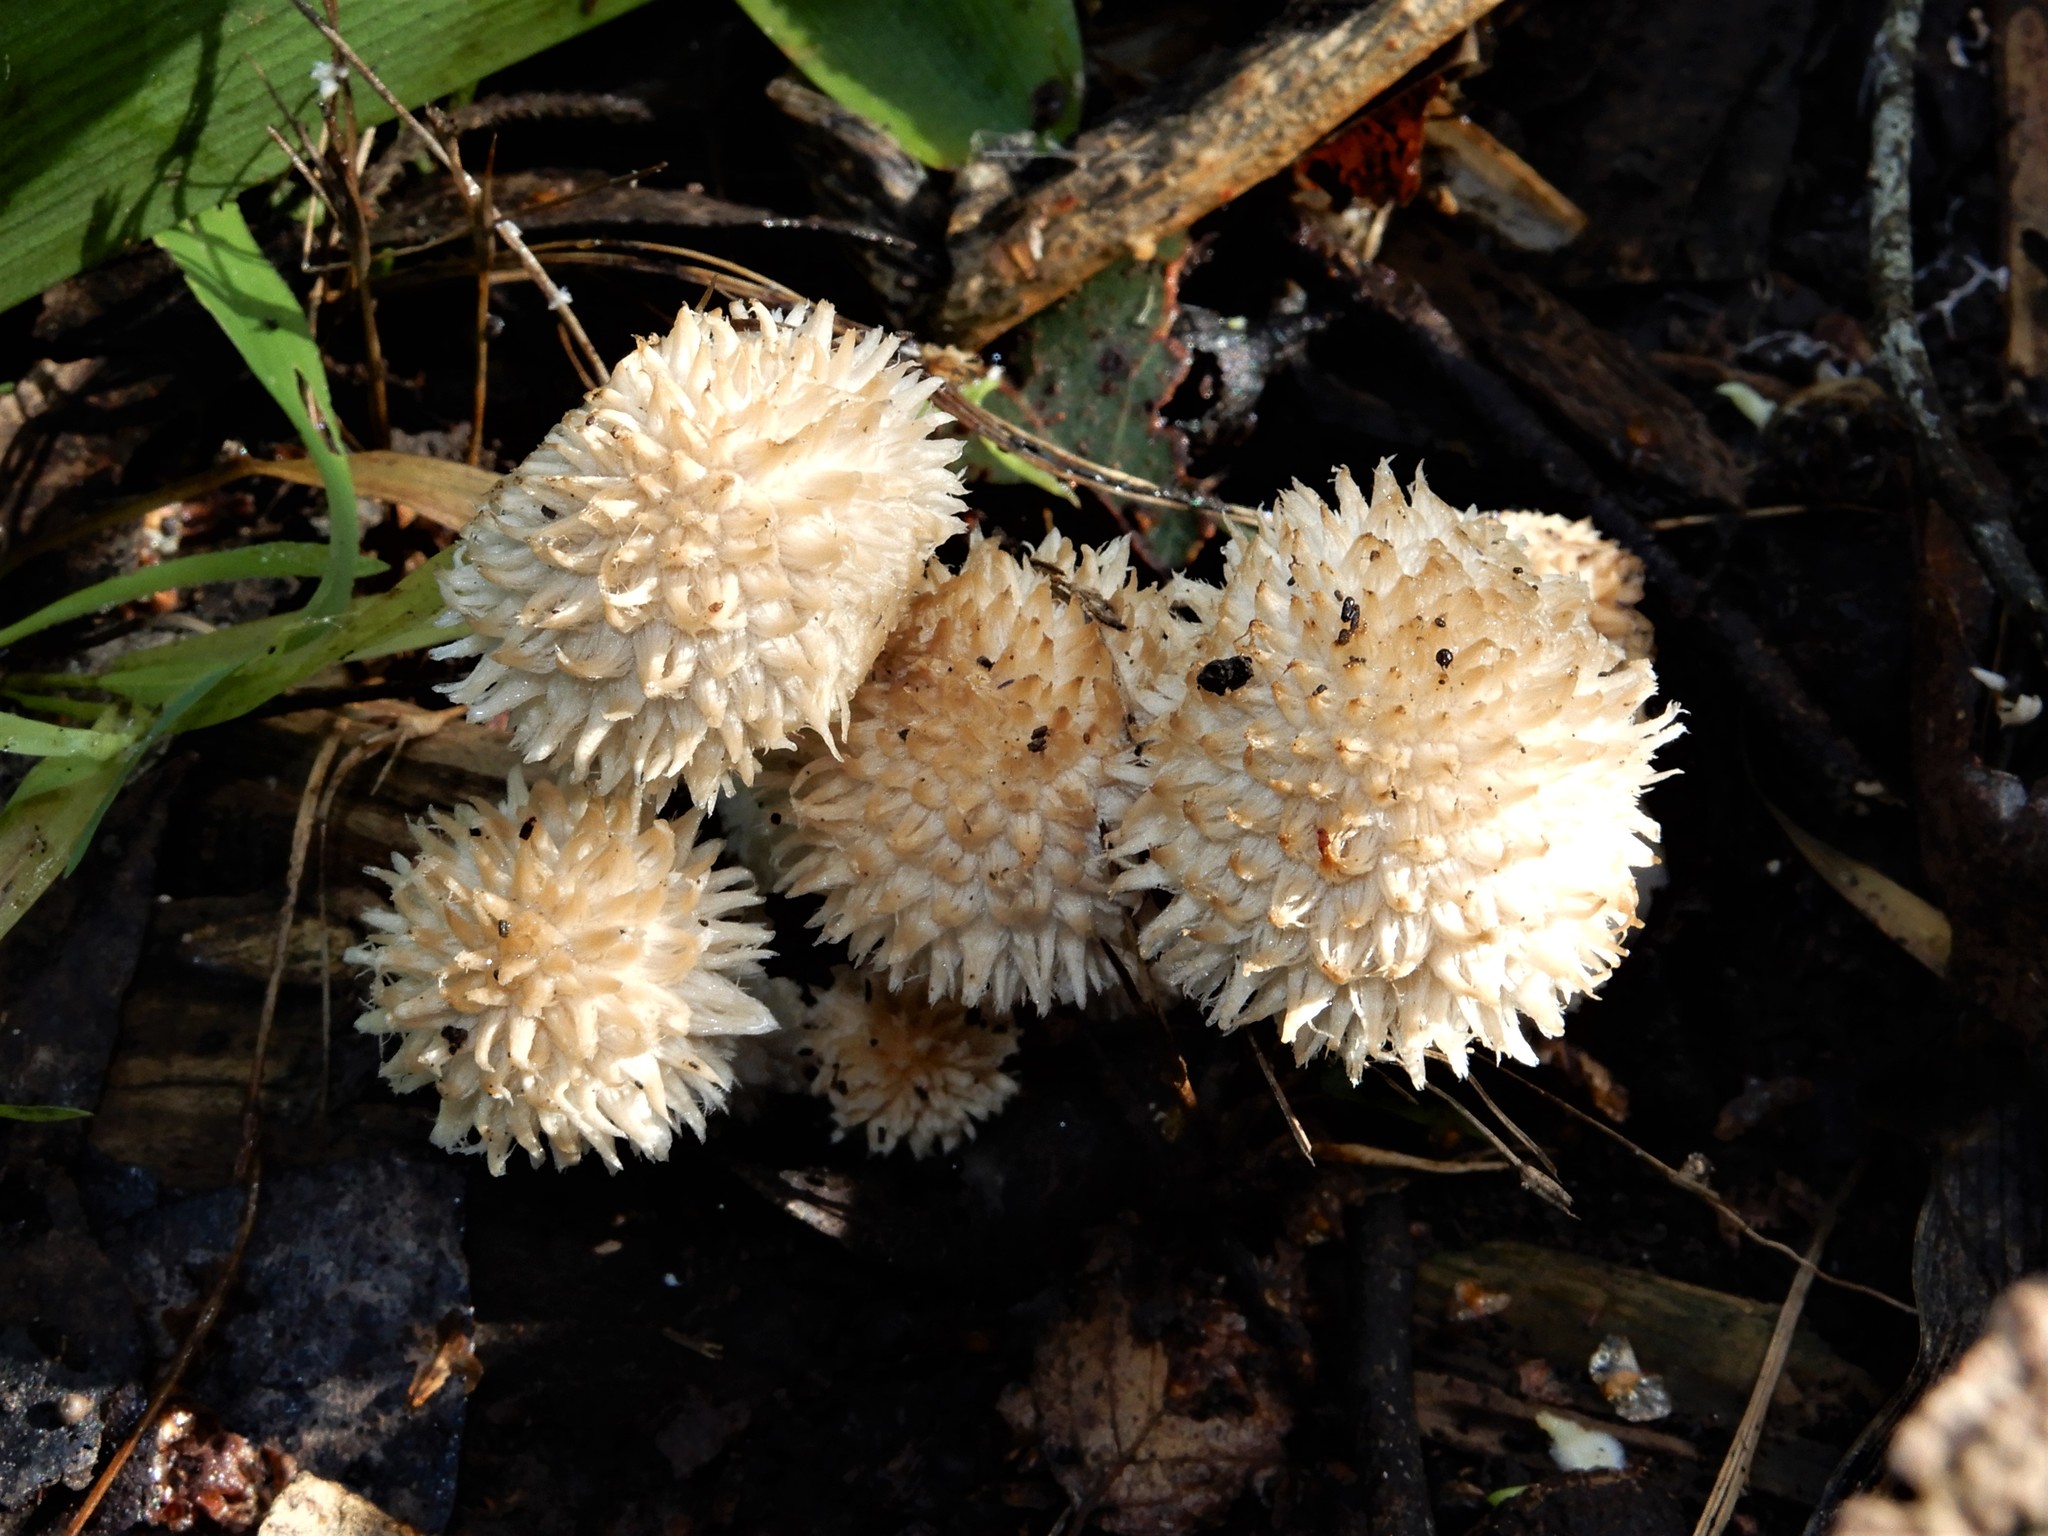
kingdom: Fungi
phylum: Basidiomycota
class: Agaricomycetes
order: Agaricales
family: Psathyrellaceae
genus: Psathyrella
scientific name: Psathyrella asperospora
